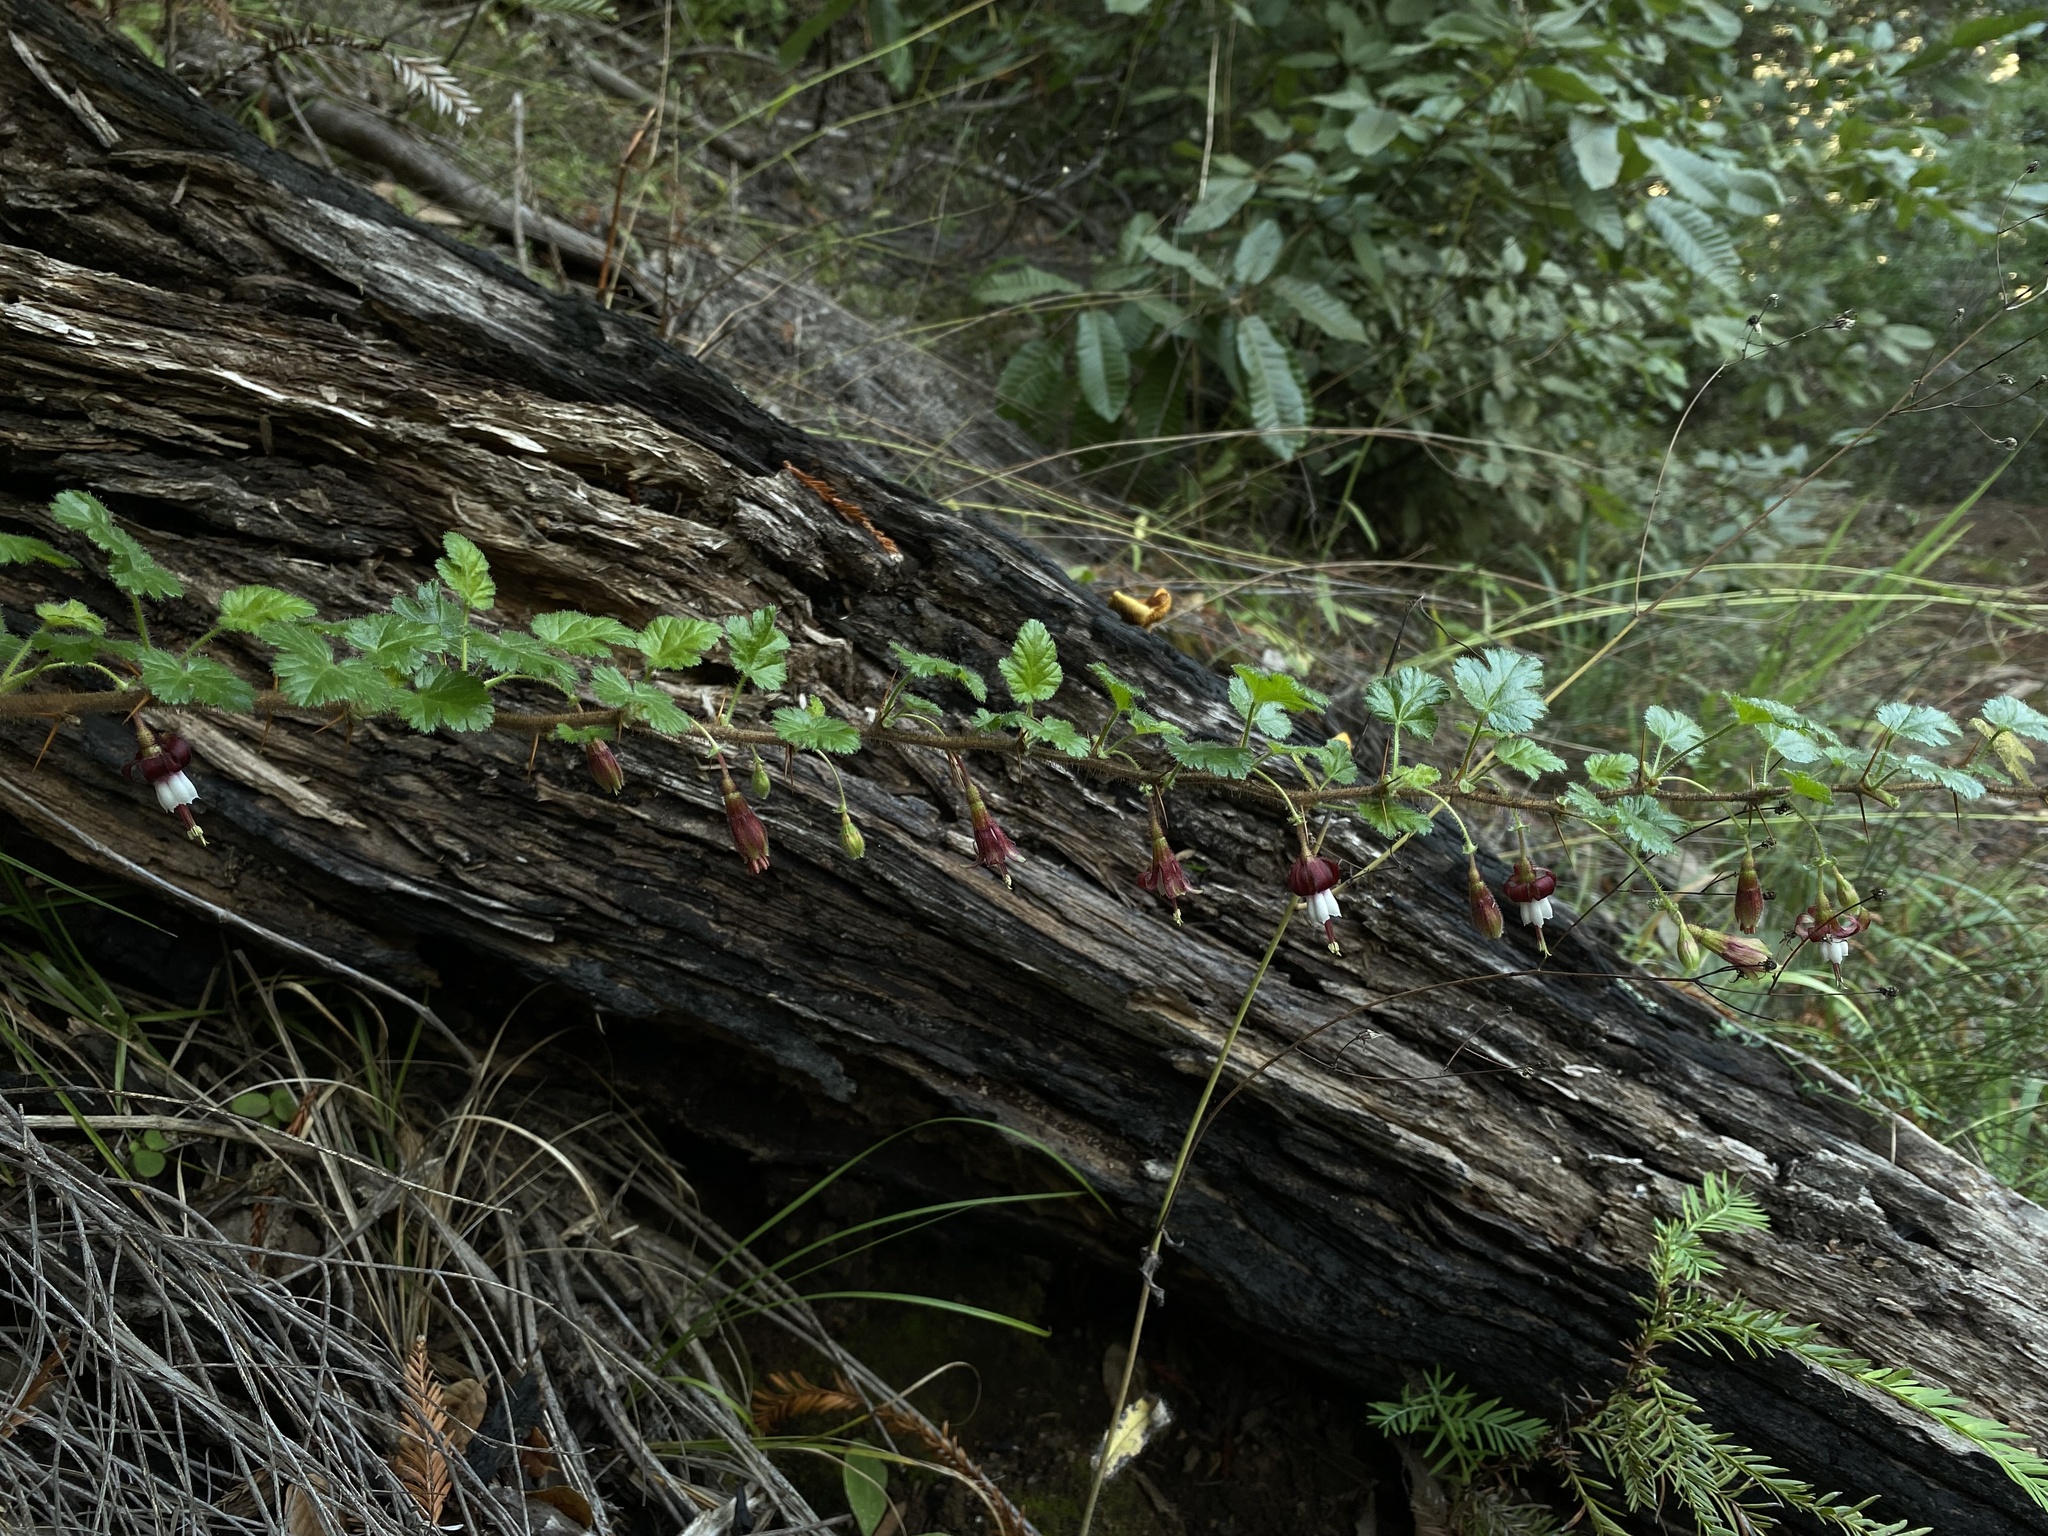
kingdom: Plantae
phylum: Tracheophyta
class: Magnoliopsida
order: Saxifragales
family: Grossulariaceae
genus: Ribes
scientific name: Ribes sericeum
